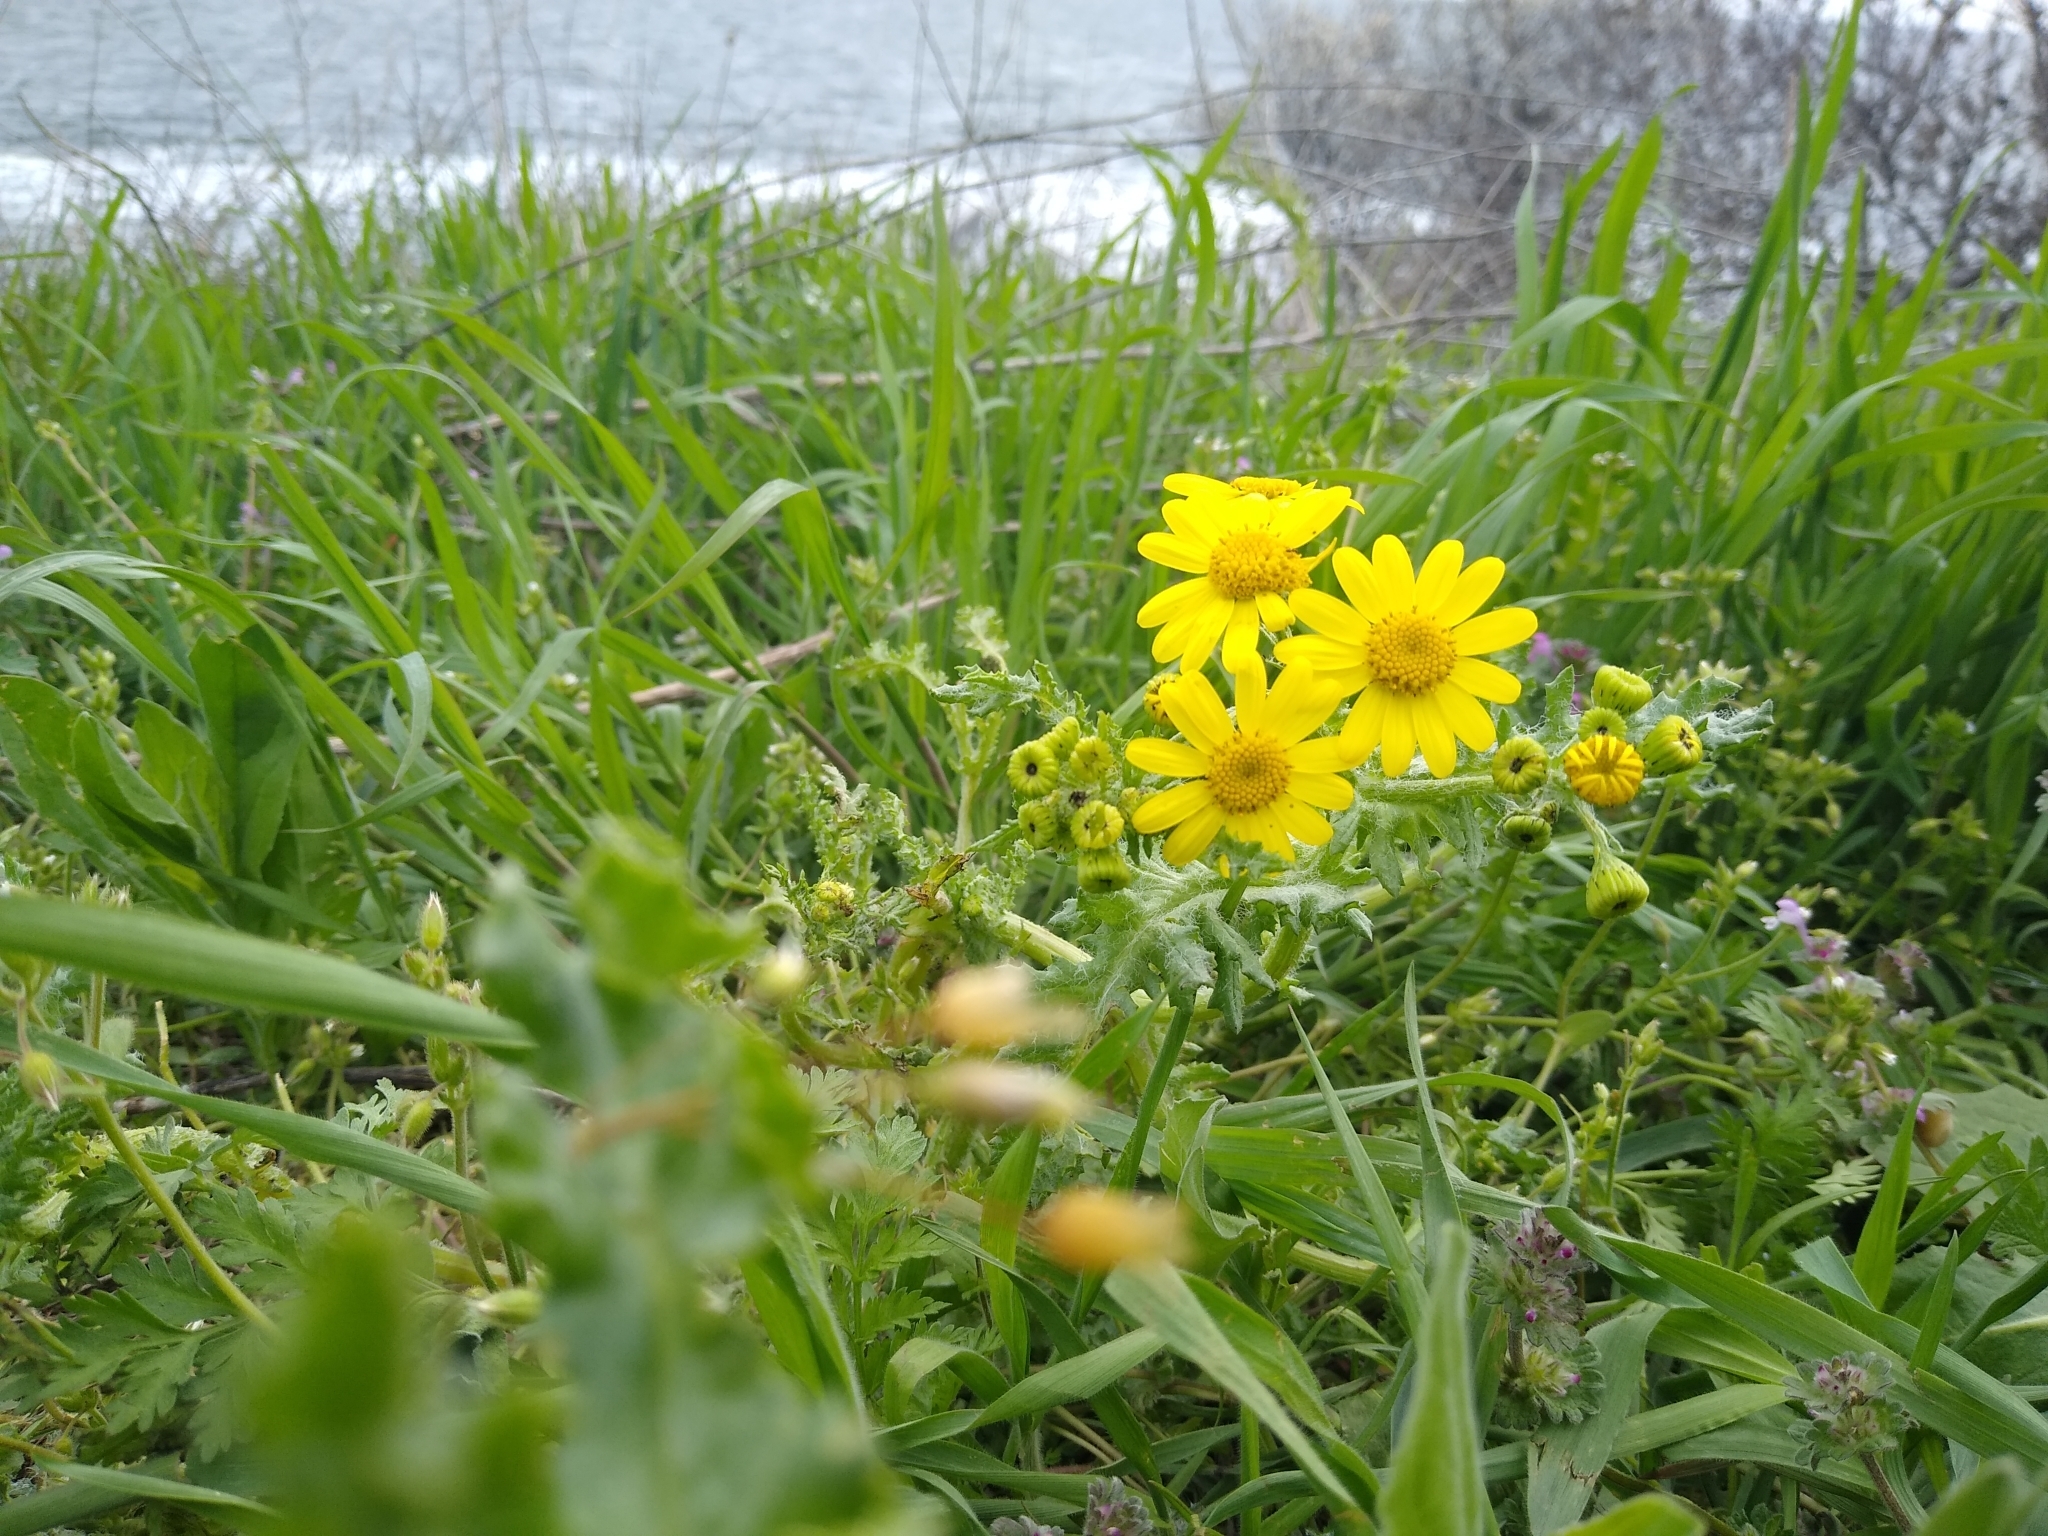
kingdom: Plantae
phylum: Tracheophyta
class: Magnoliopsida
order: Asterales
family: Asteraceae
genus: Senecio
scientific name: Senecio vernalis
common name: Eastern groundsel
